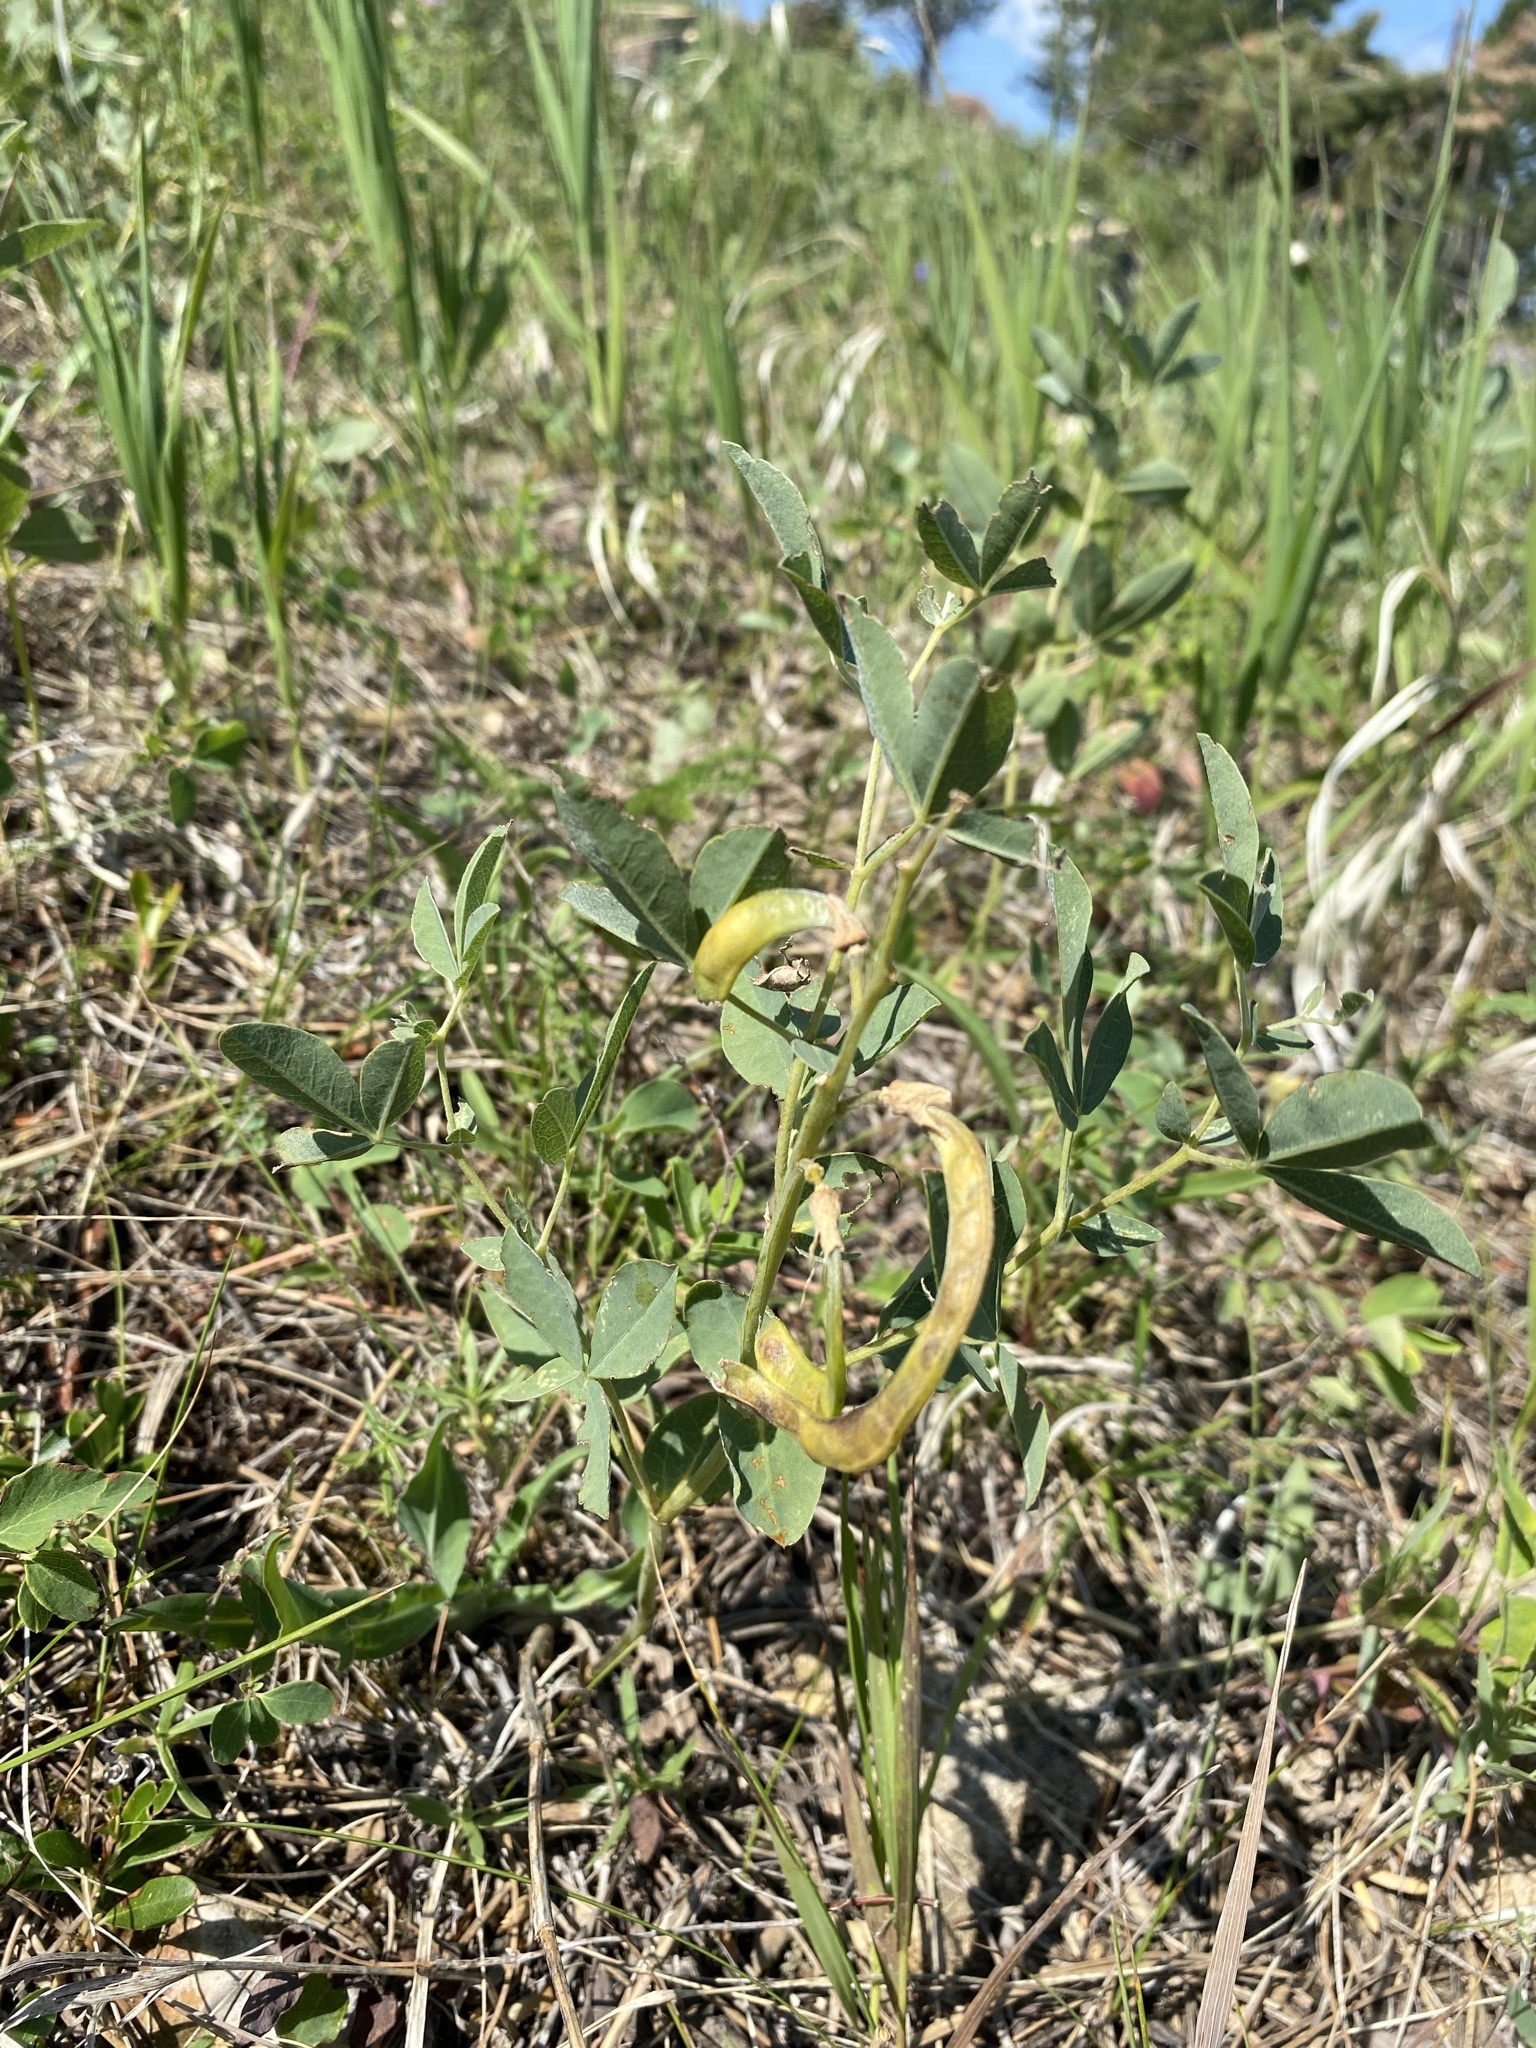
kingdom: Plantae
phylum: Tracheophyta
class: Magnoliopsida
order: Fabales
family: Fabaceae
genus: Thermopsis
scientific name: Thermopsis rhombifolia
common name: Circle-pod-pea
